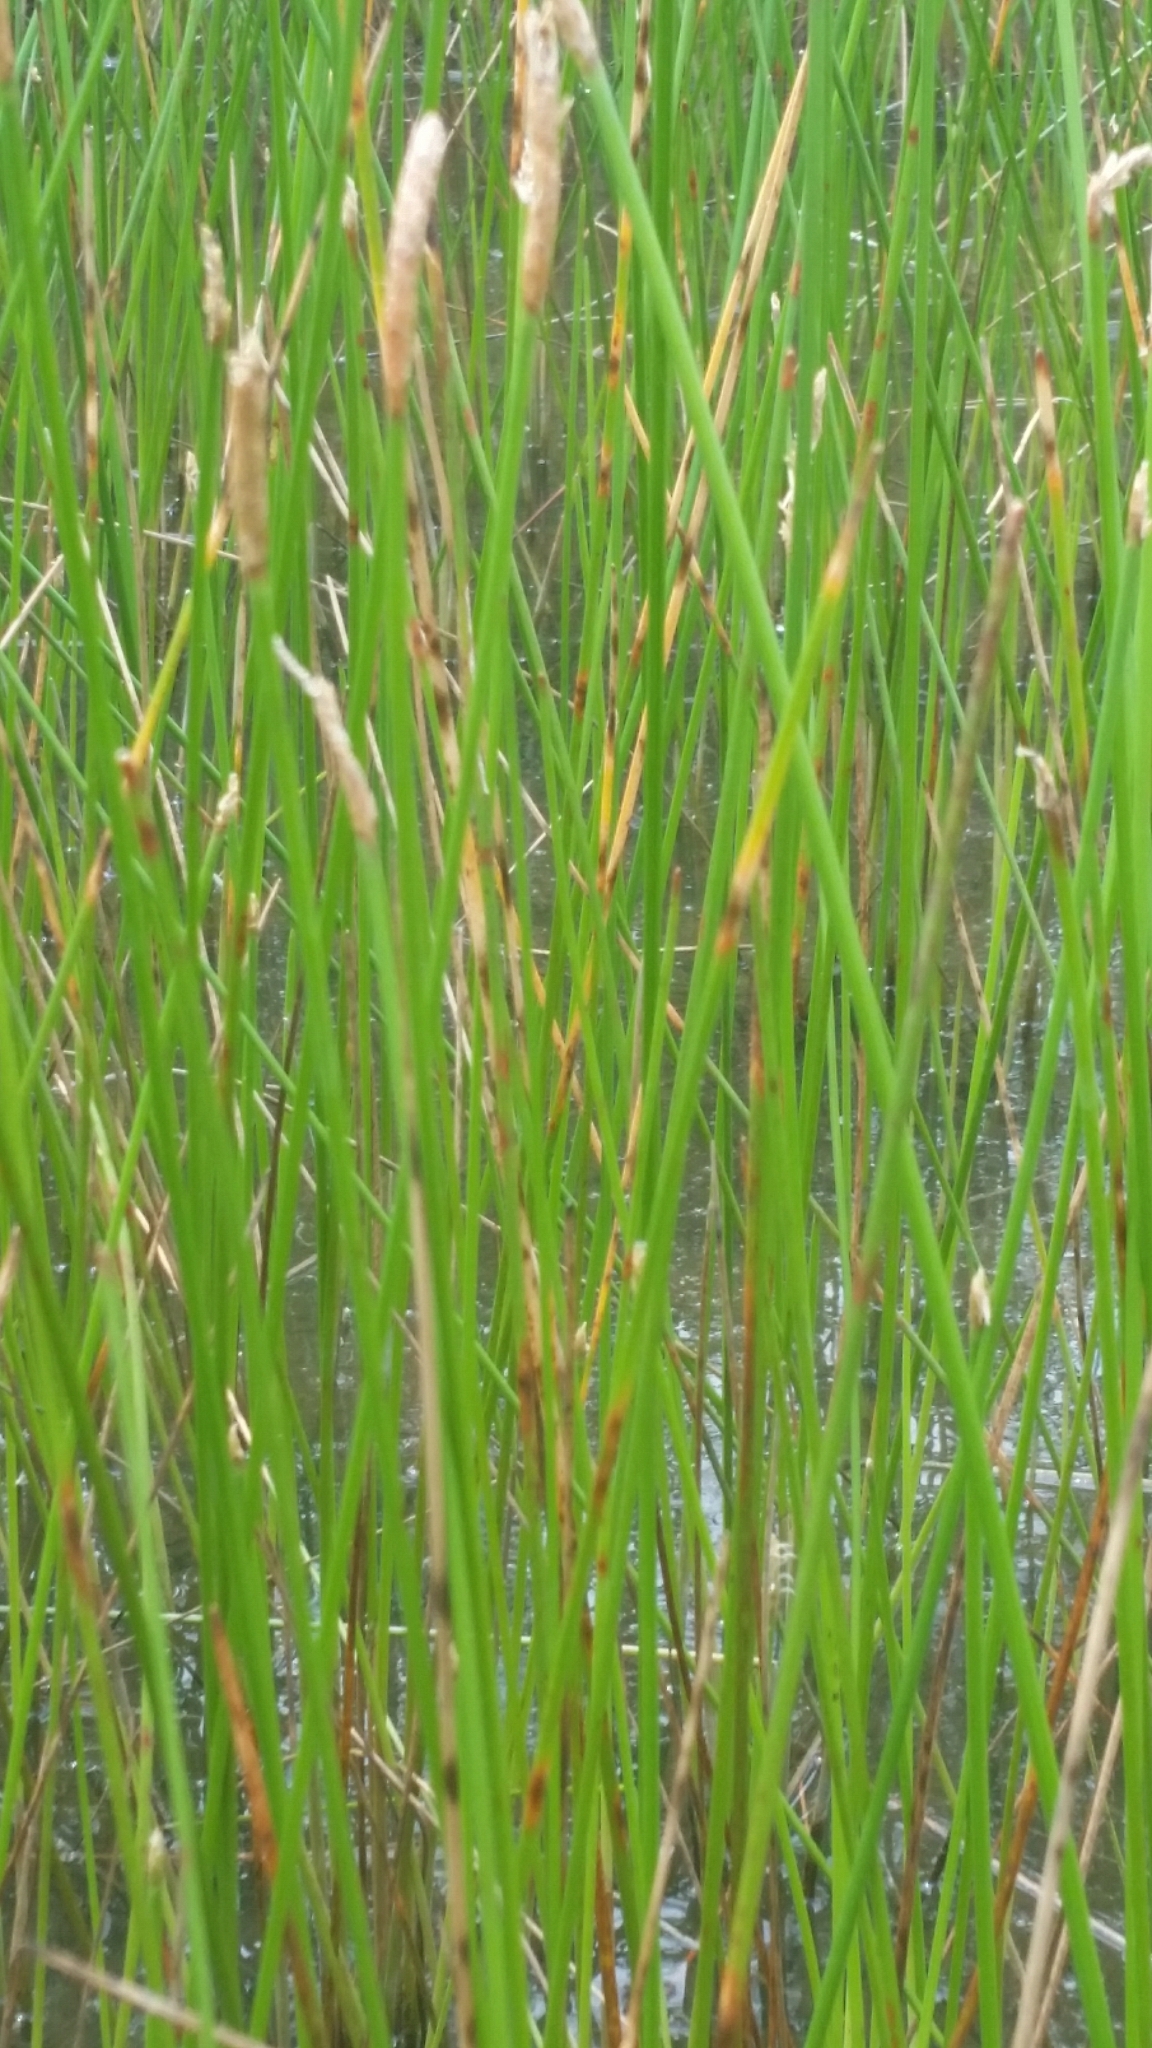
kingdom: Plantae
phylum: Tracheophyta
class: Liliopsida
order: Poales
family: Cyperaceae
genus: Eleocharis
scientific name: Eleocharis cellulosa
